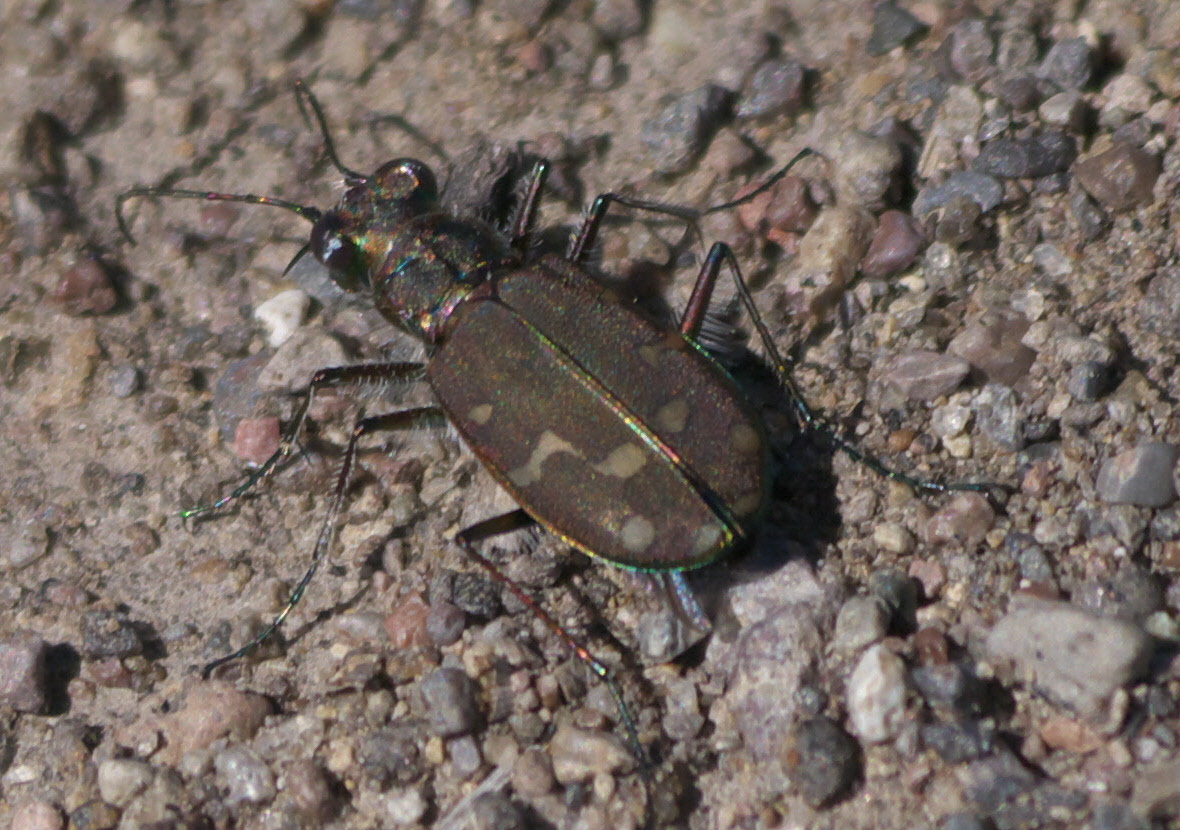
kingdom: Animalia
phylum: Arthropoda
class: Insecta
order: Coleoptera
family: Carabidae
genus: Cicindela
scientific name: Cicindela oregona
